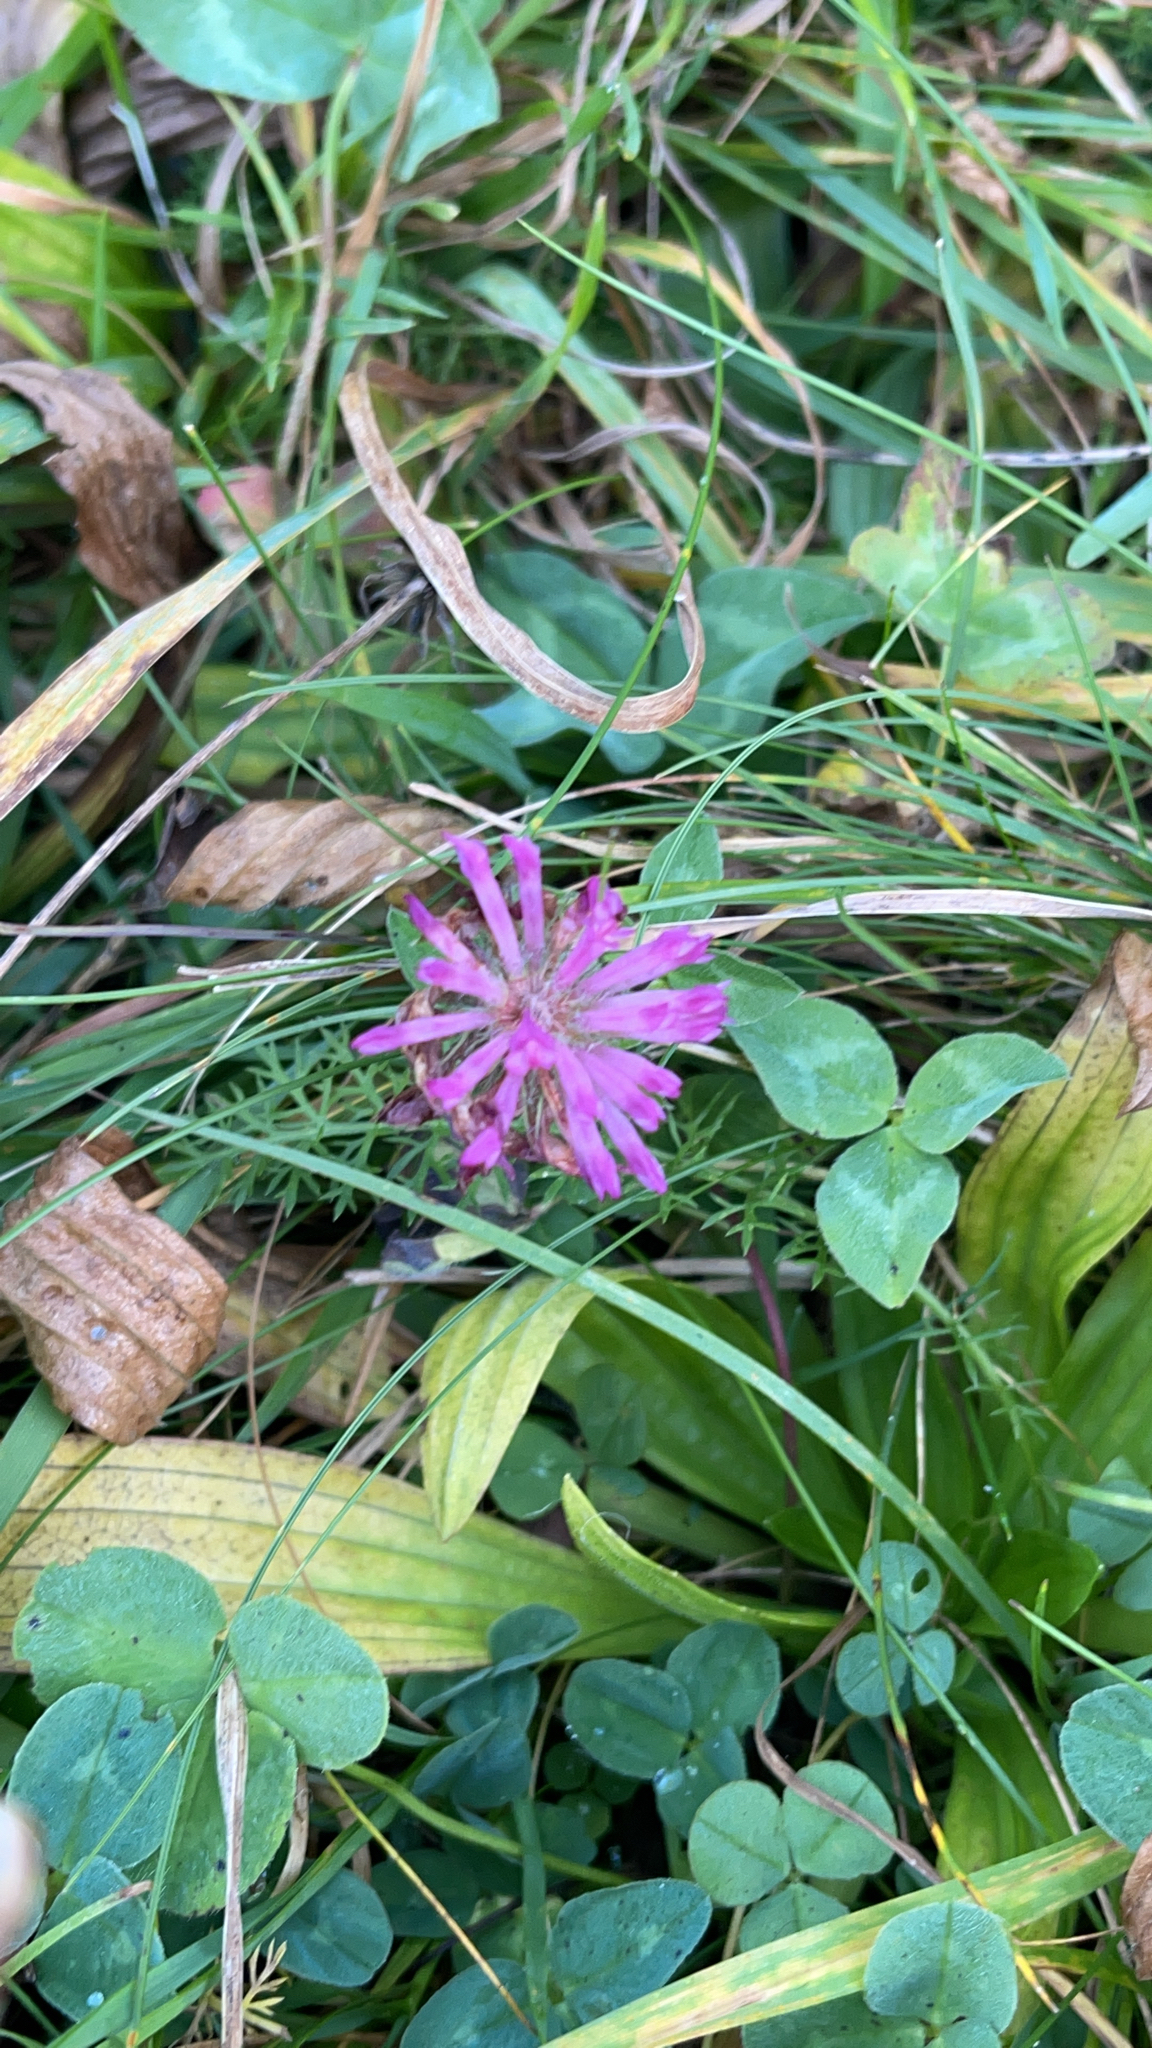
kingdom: Plantae
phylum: Tracheophyta
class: Magnoliopsida
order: Fabales
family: Fabaceae
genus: Trifolium
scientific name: Trifolium pratense
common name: Red clover
